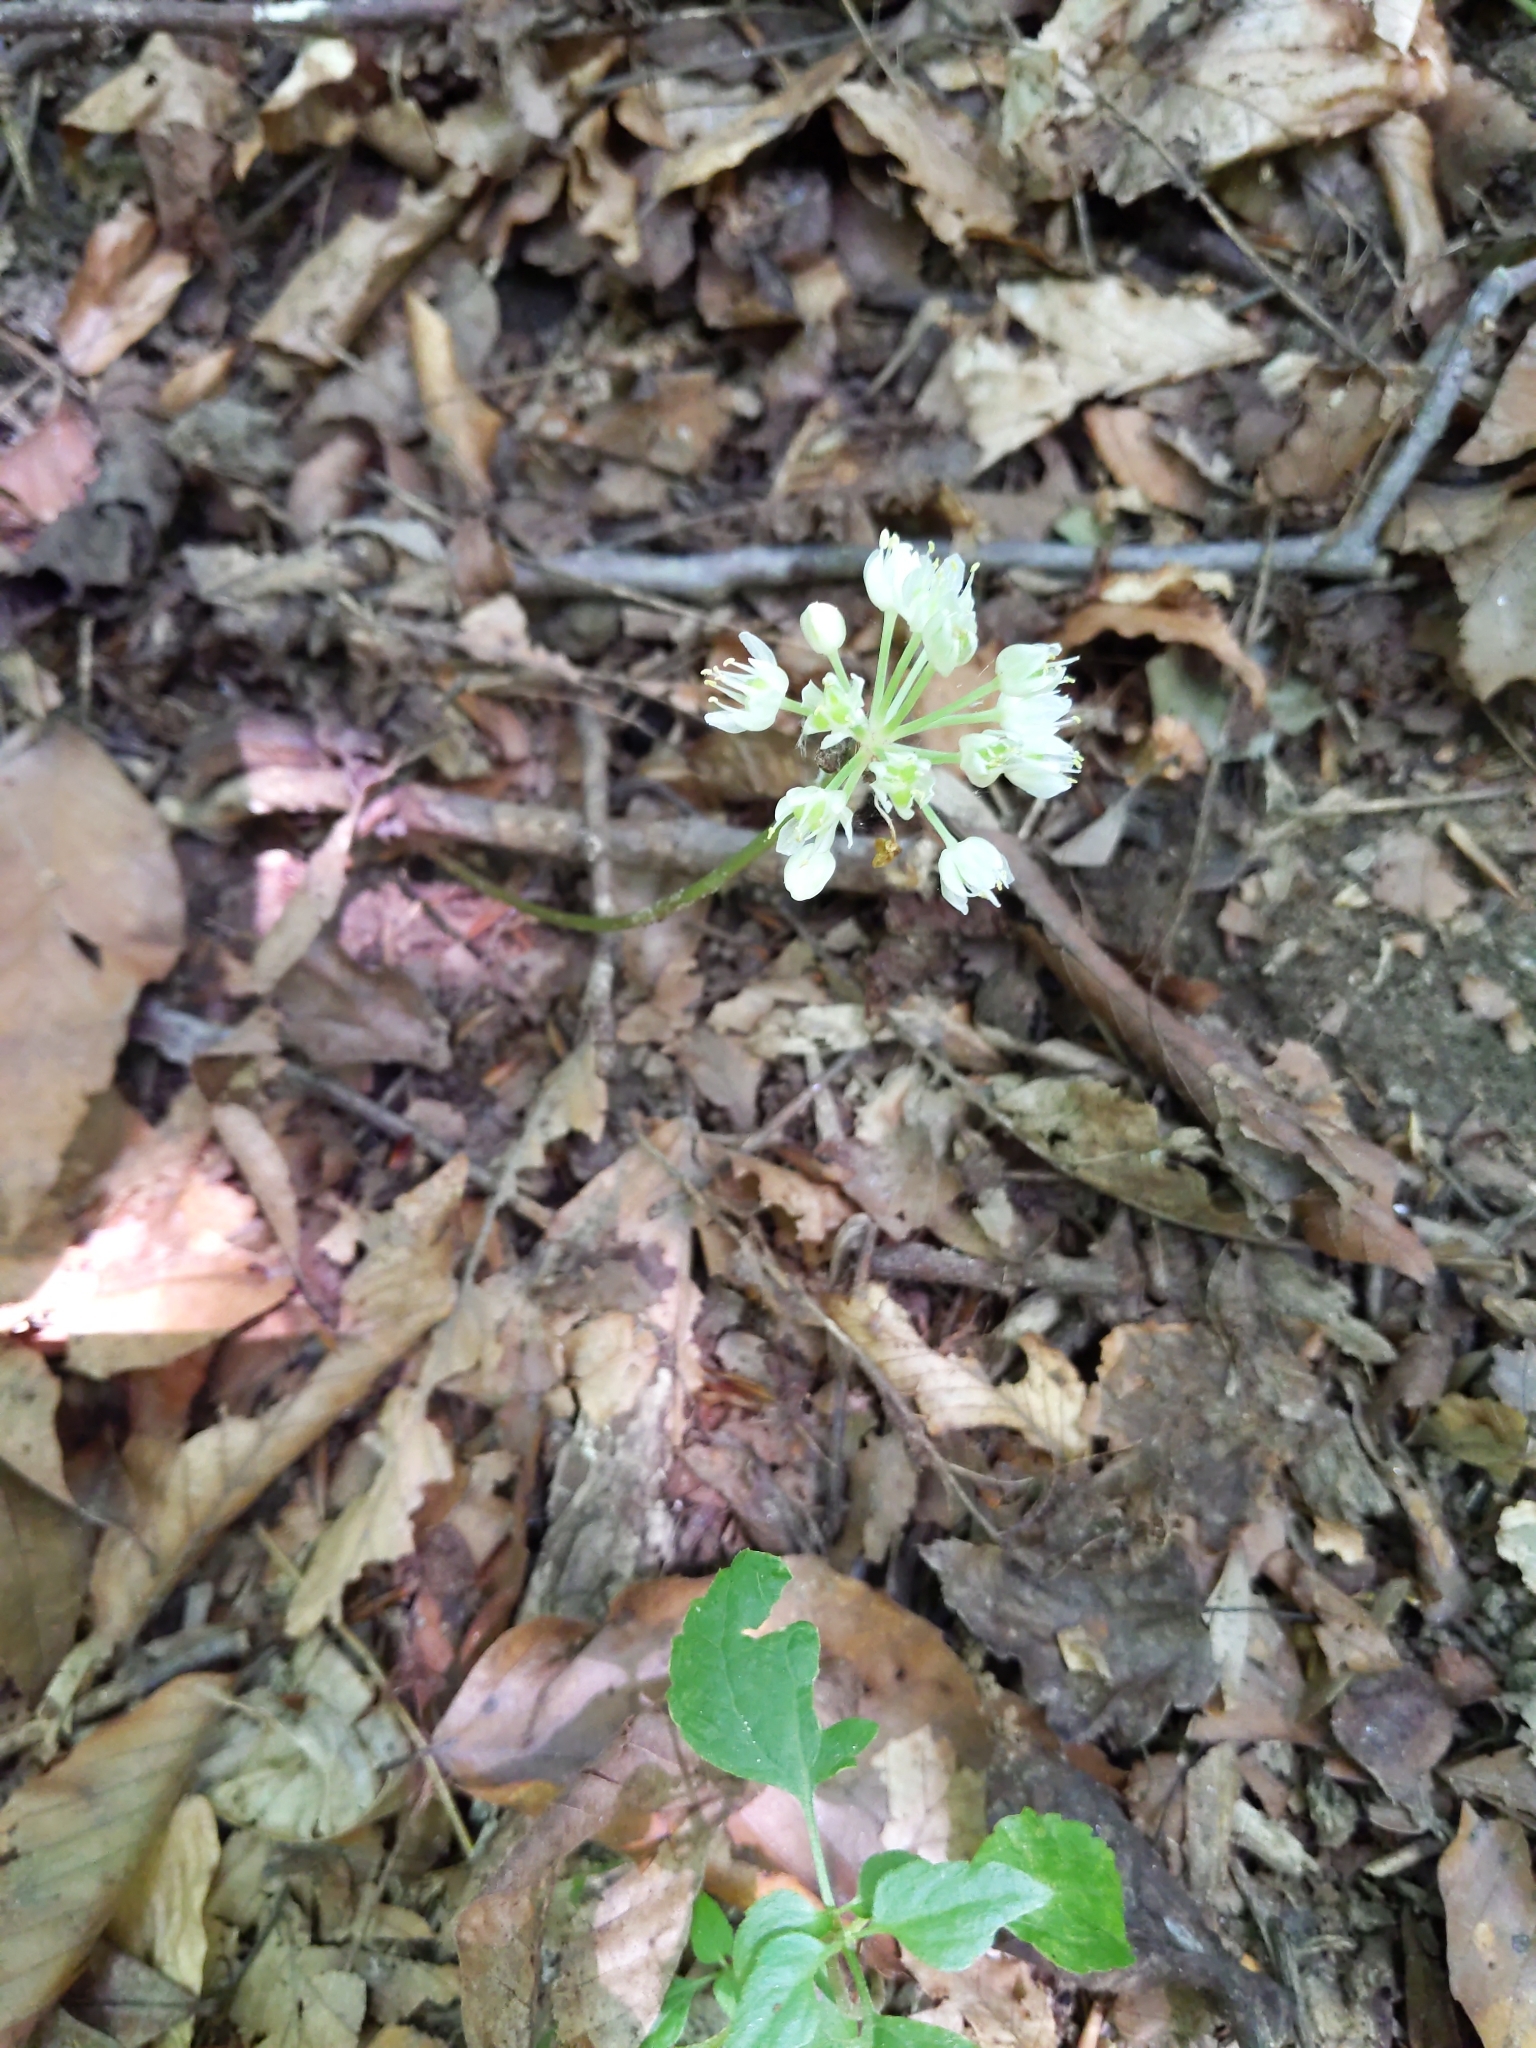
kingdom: Plantae
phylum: Tracheophyta
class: Liliopsida
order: Asparagales
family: Amaryllidaceae
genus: Allium
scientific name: Allium tricoccum
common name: Ramp
